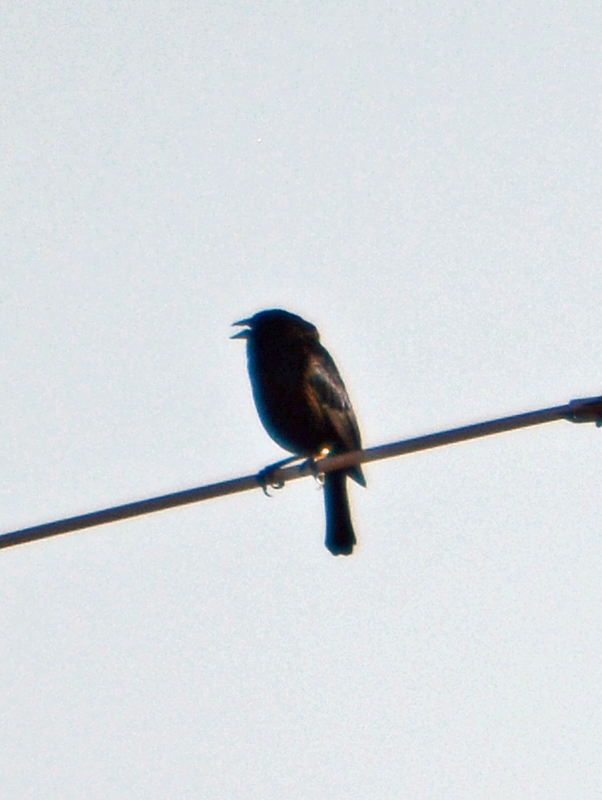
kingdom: Animalia
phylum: Chordata
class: Aves
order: Passeriformes
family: Icteridae
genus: Molothrus
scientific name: Molothrus aeneus
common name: Bronzed cowbird
